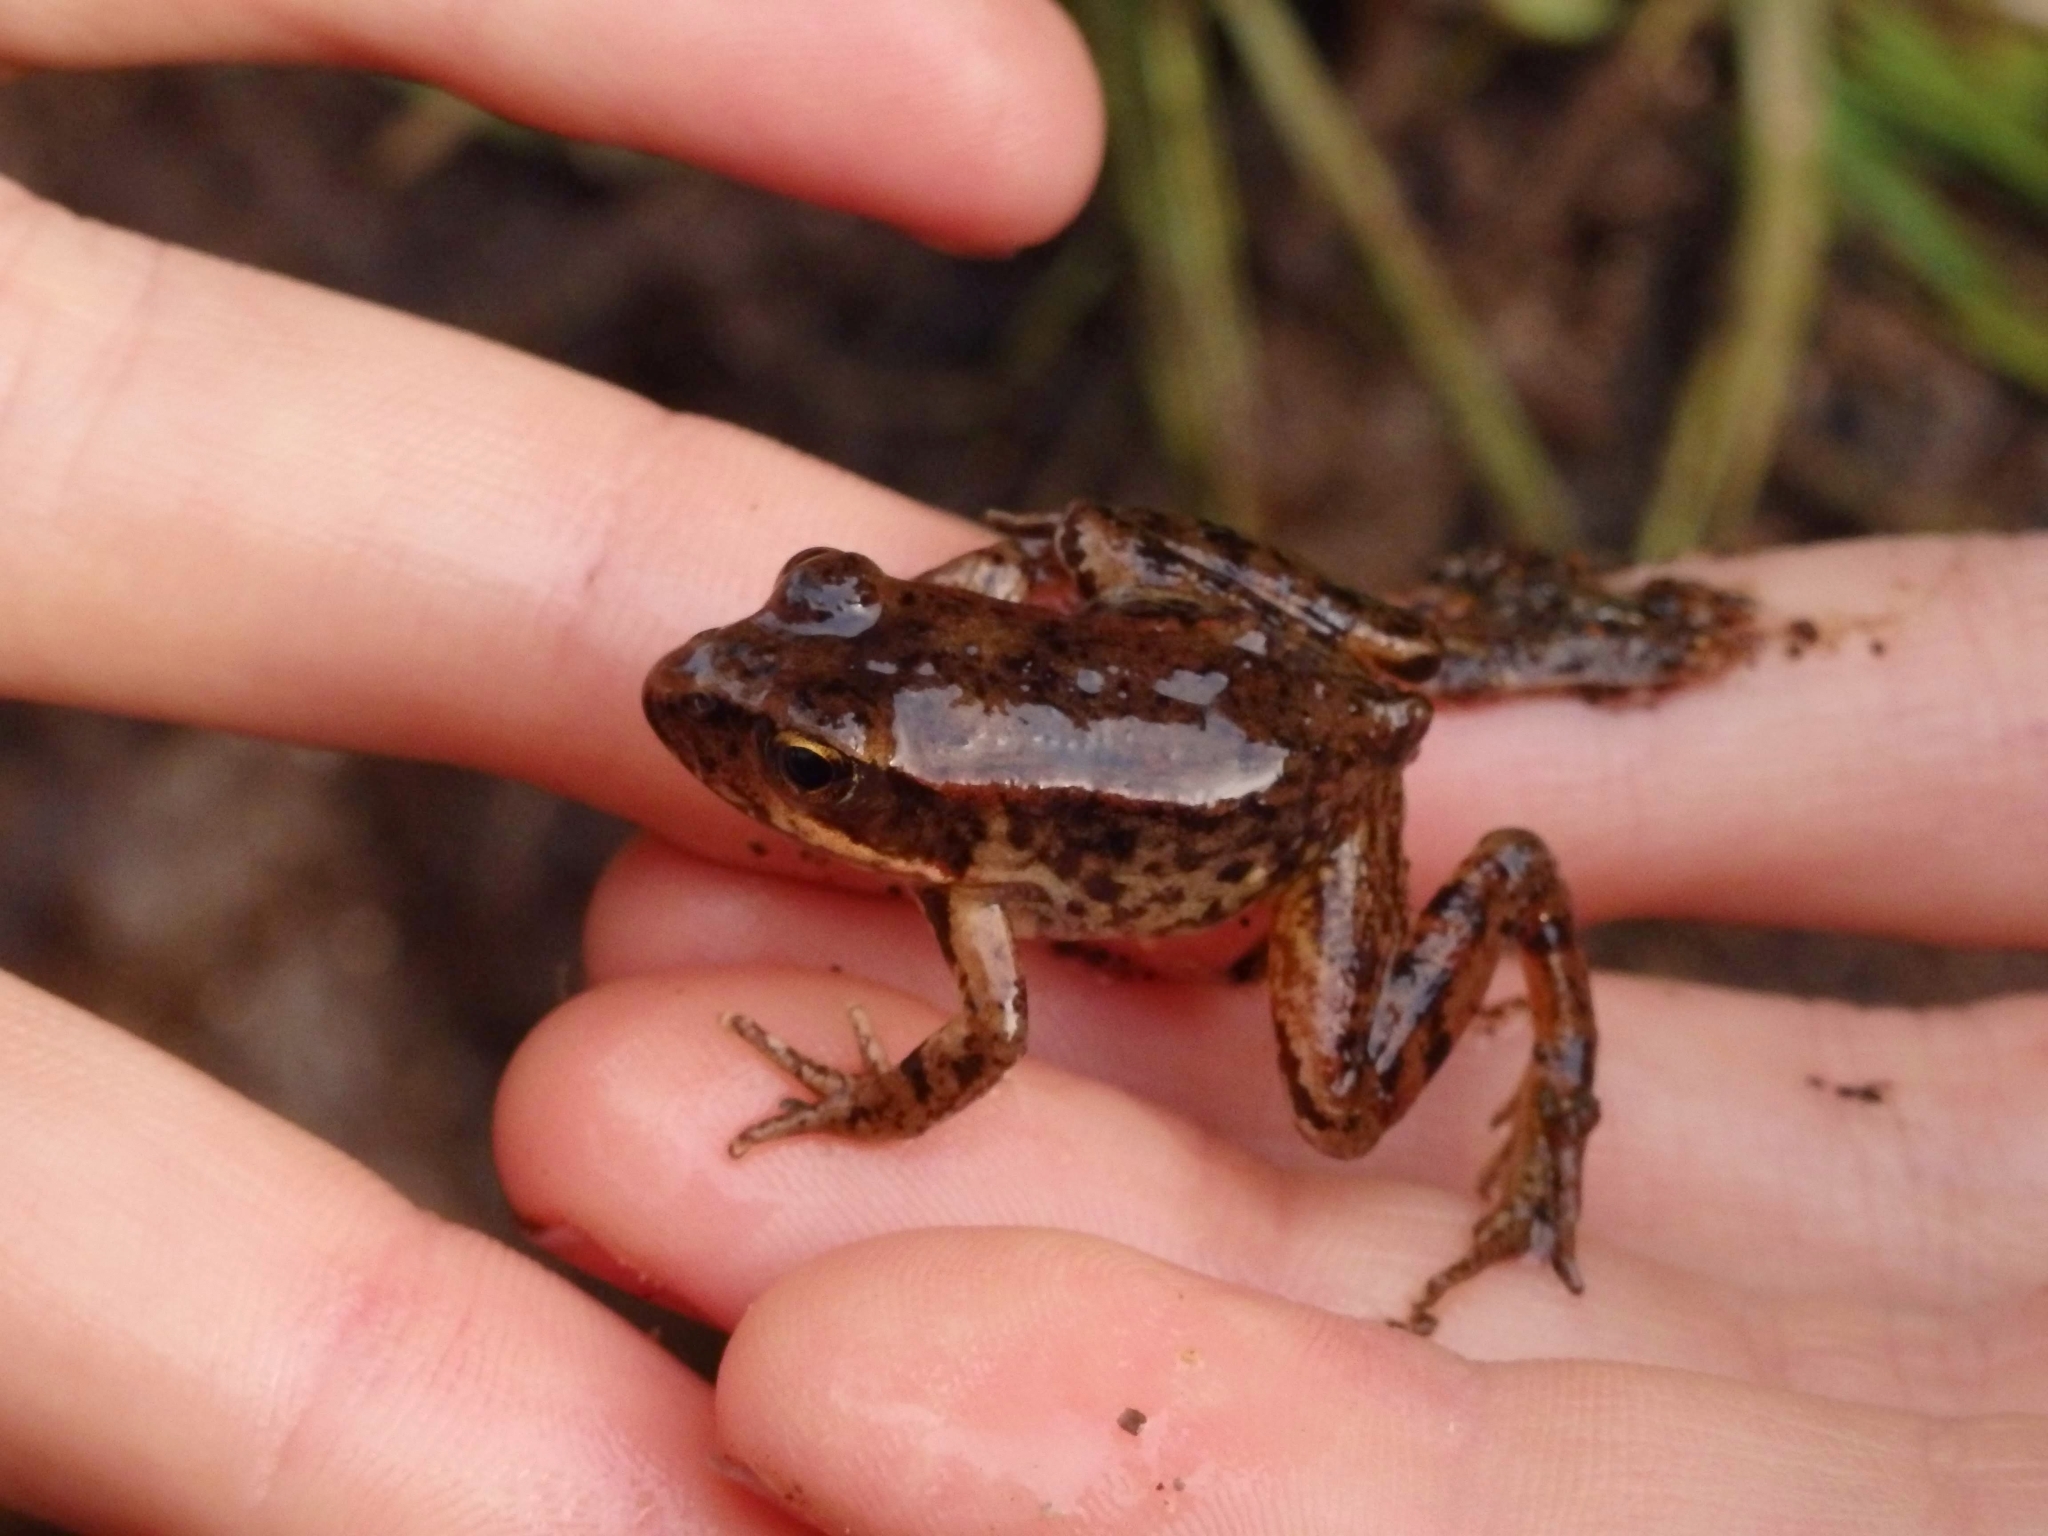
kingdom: Animalia
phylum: Chordata
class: Amphibia
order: Anura
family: Ranidae
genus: Rana
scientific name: Rana aurora
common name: Red-legged frog
